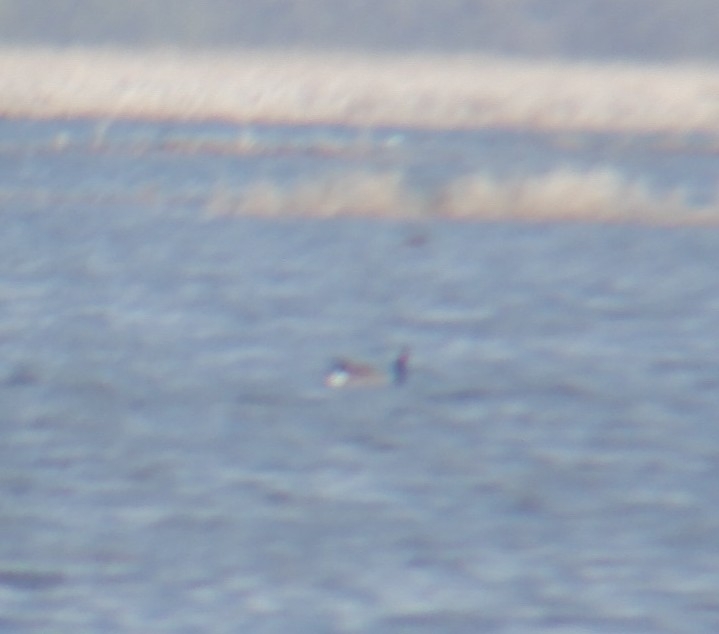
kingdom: Animalia
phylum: Chordata
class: Aves
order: Anseriformes
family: Anatidae
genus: Branta
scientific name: Branta canadensis
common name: Canada goose
